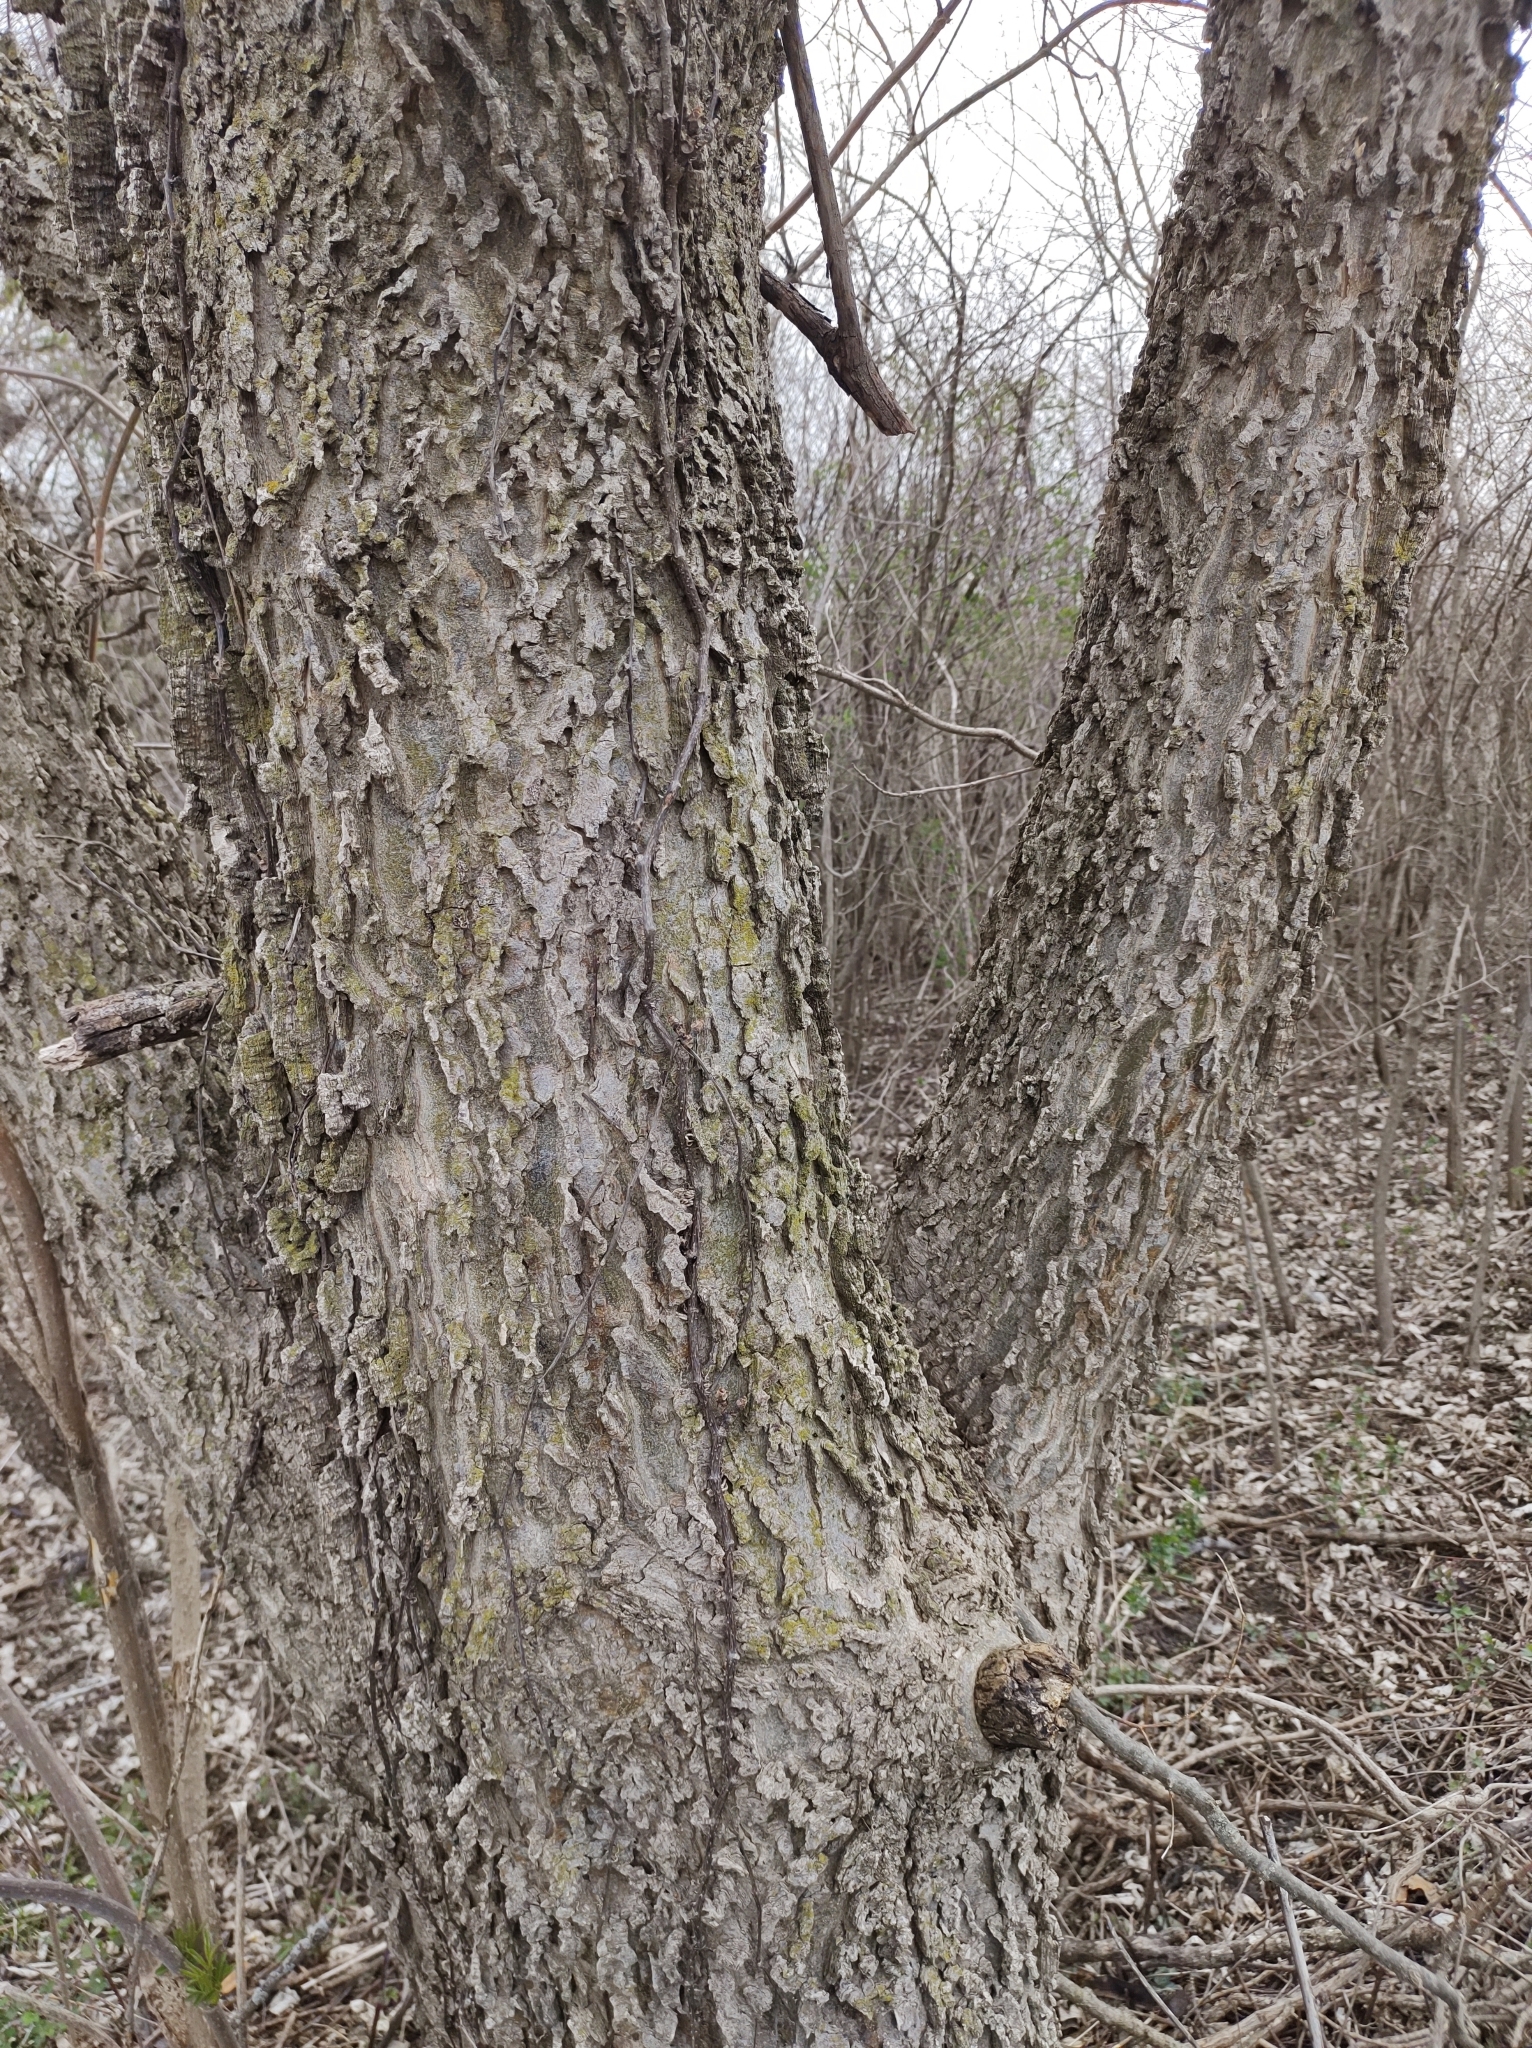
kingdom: Plantae
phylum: Tracheophyta
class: Magnoliopsida
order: Rosales
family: Cannabaceae
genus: Celtis
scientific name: Celtis occidentalis
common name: Common hackberry
